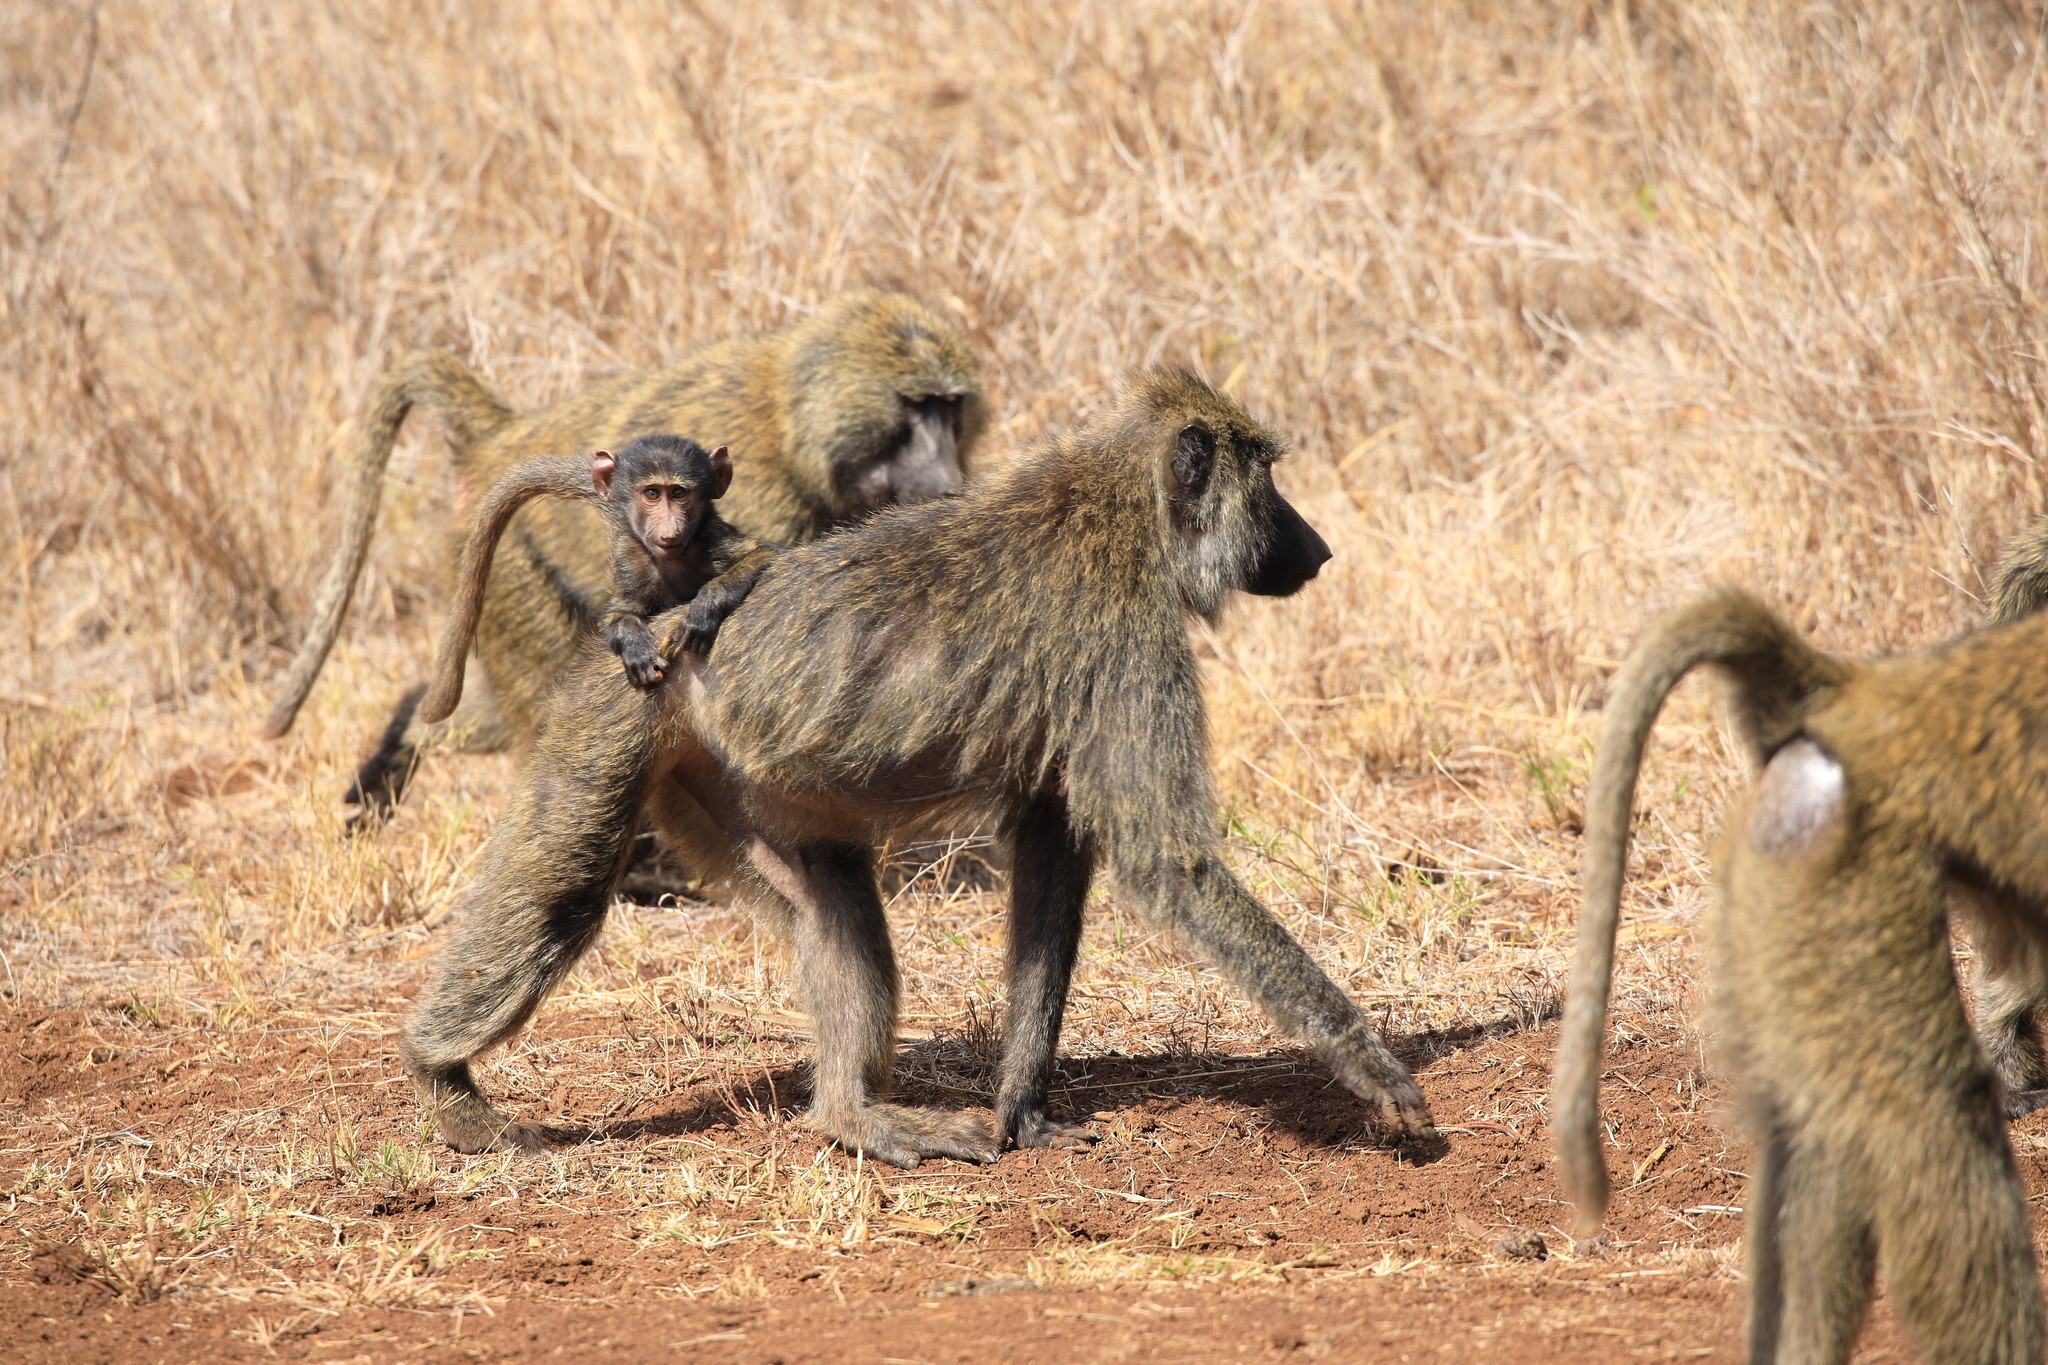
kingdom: Animalia
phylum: Chordata
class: Mammalia
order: Primates
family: Cercopithecidae
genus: Papio
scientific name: Papio anubis
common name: Olive baboon
